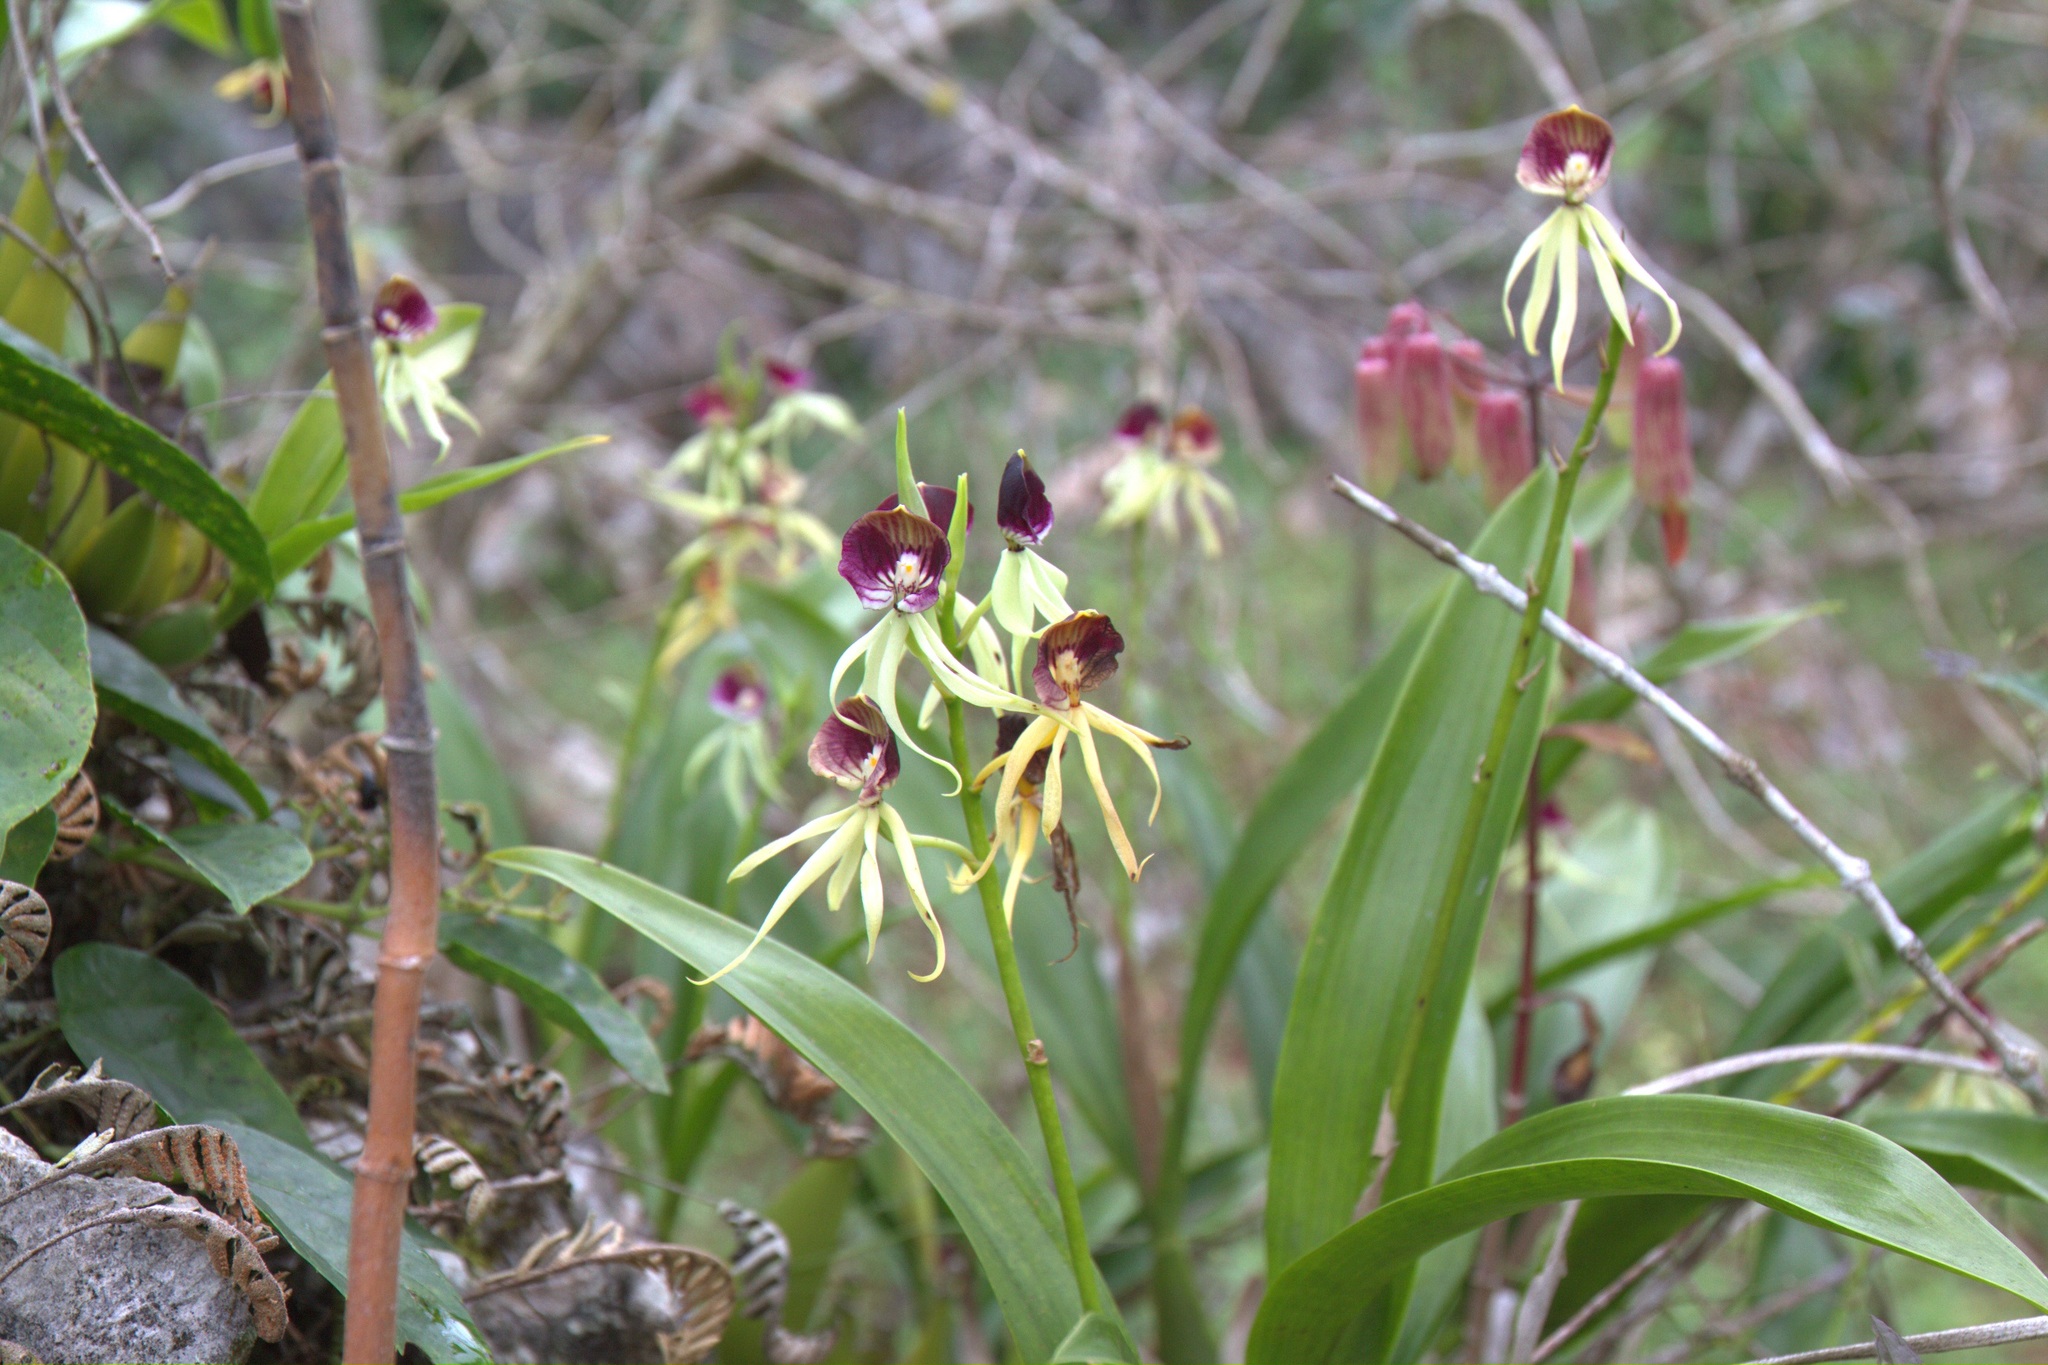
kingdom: Plantae
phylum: Tracheophyta
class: Liliopsida
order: Asparagales
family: Orchidaceae
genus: Prosthechea
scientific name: Prosthechea cochleata
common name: Clamshell orchid
